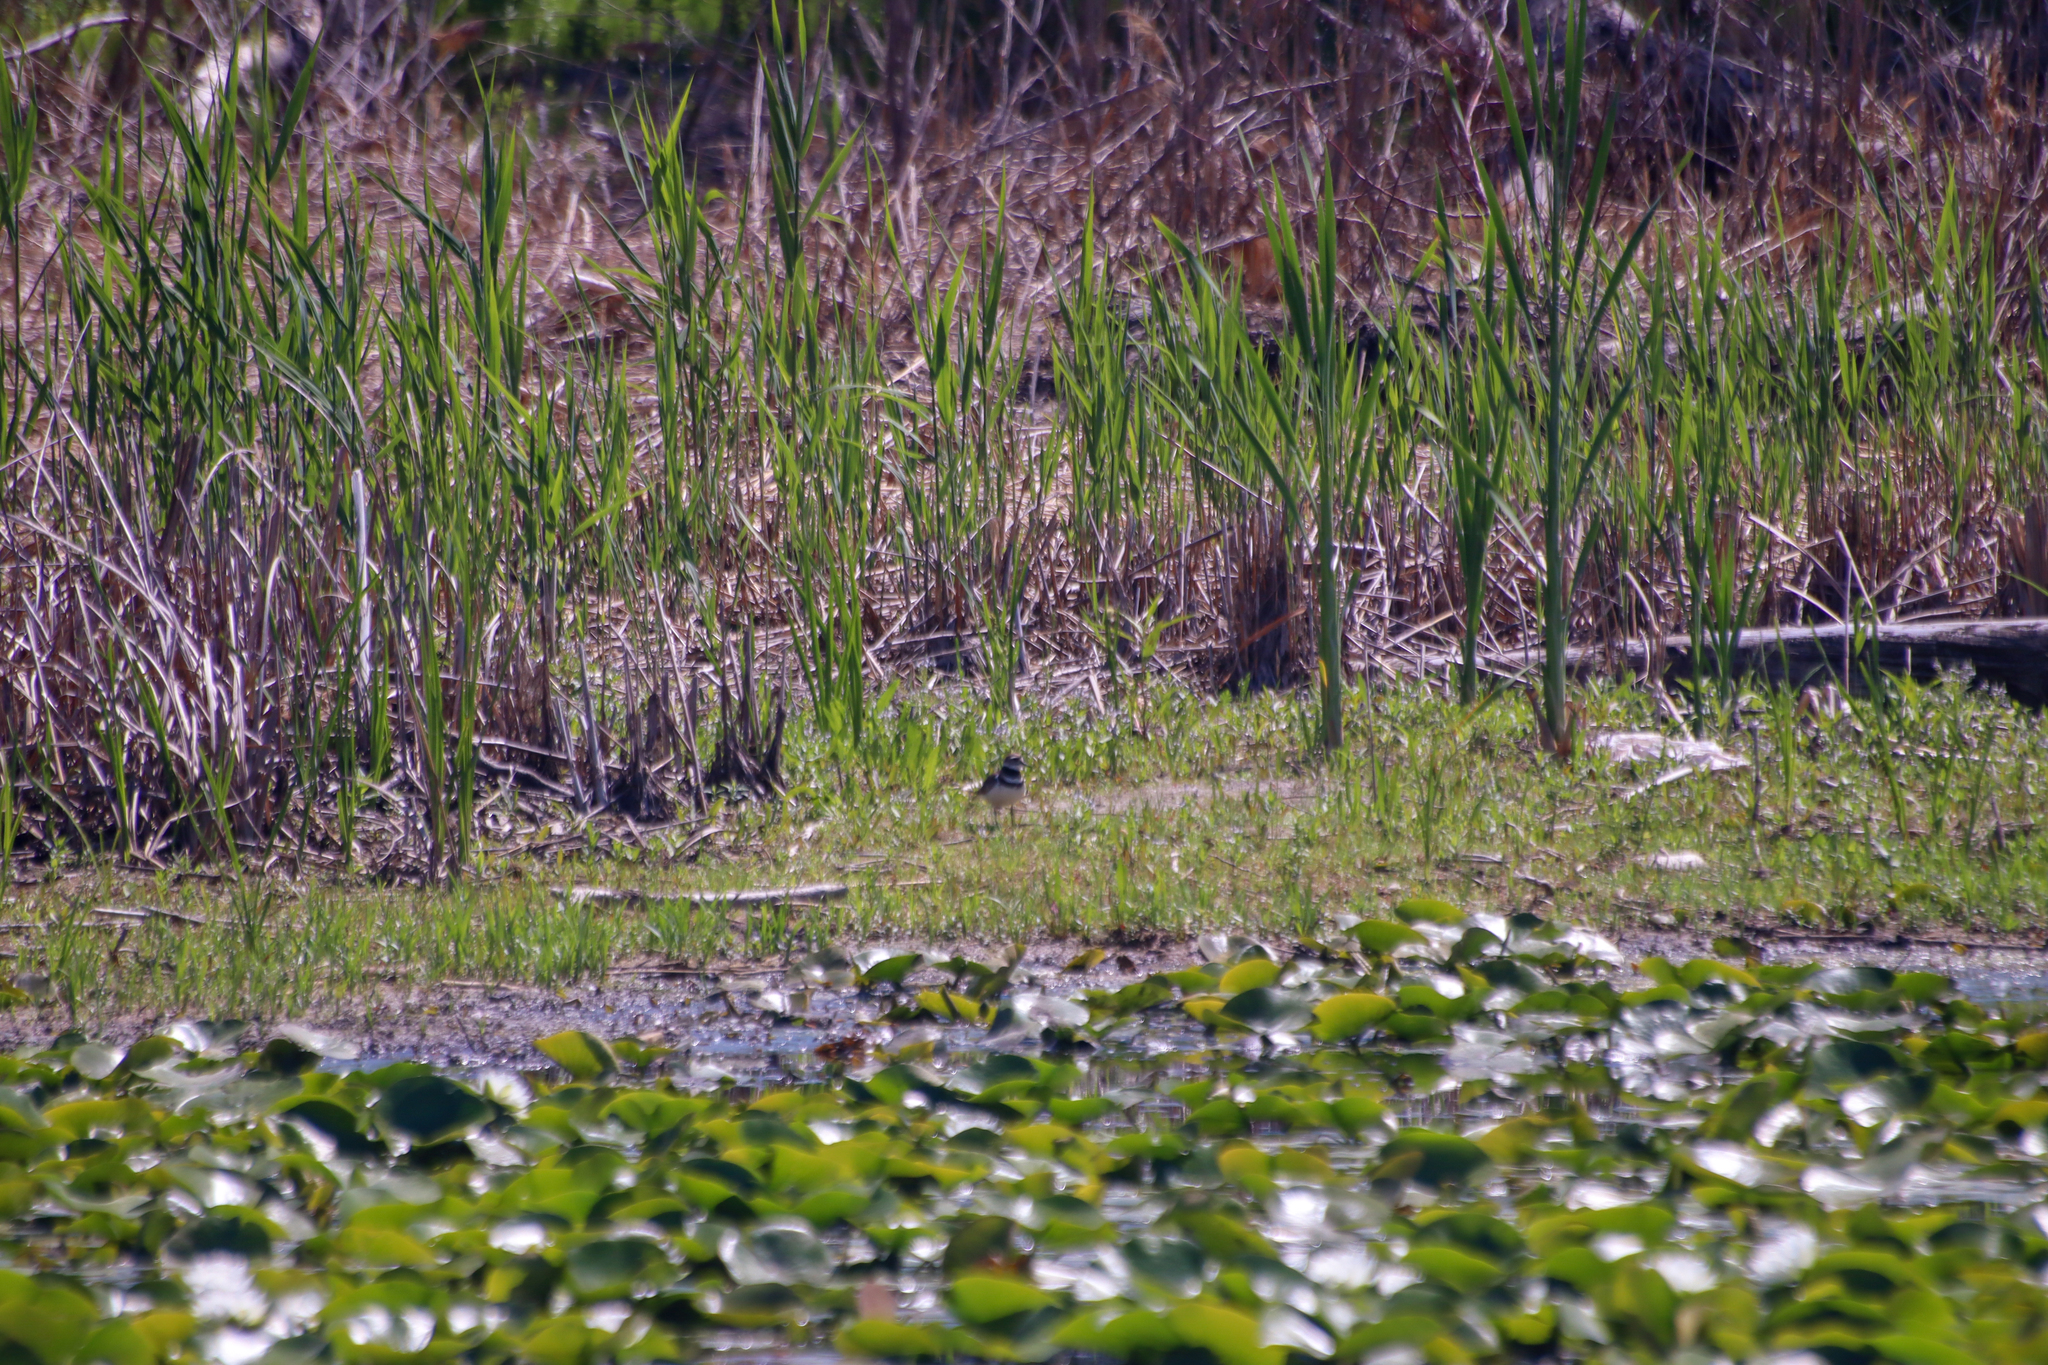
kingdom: Animalia
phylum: Chordata
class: Aves
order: Charadriiformes
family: Charadriidae
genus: Charadrius
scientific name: Charadrius vociferus
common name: Killdeer
